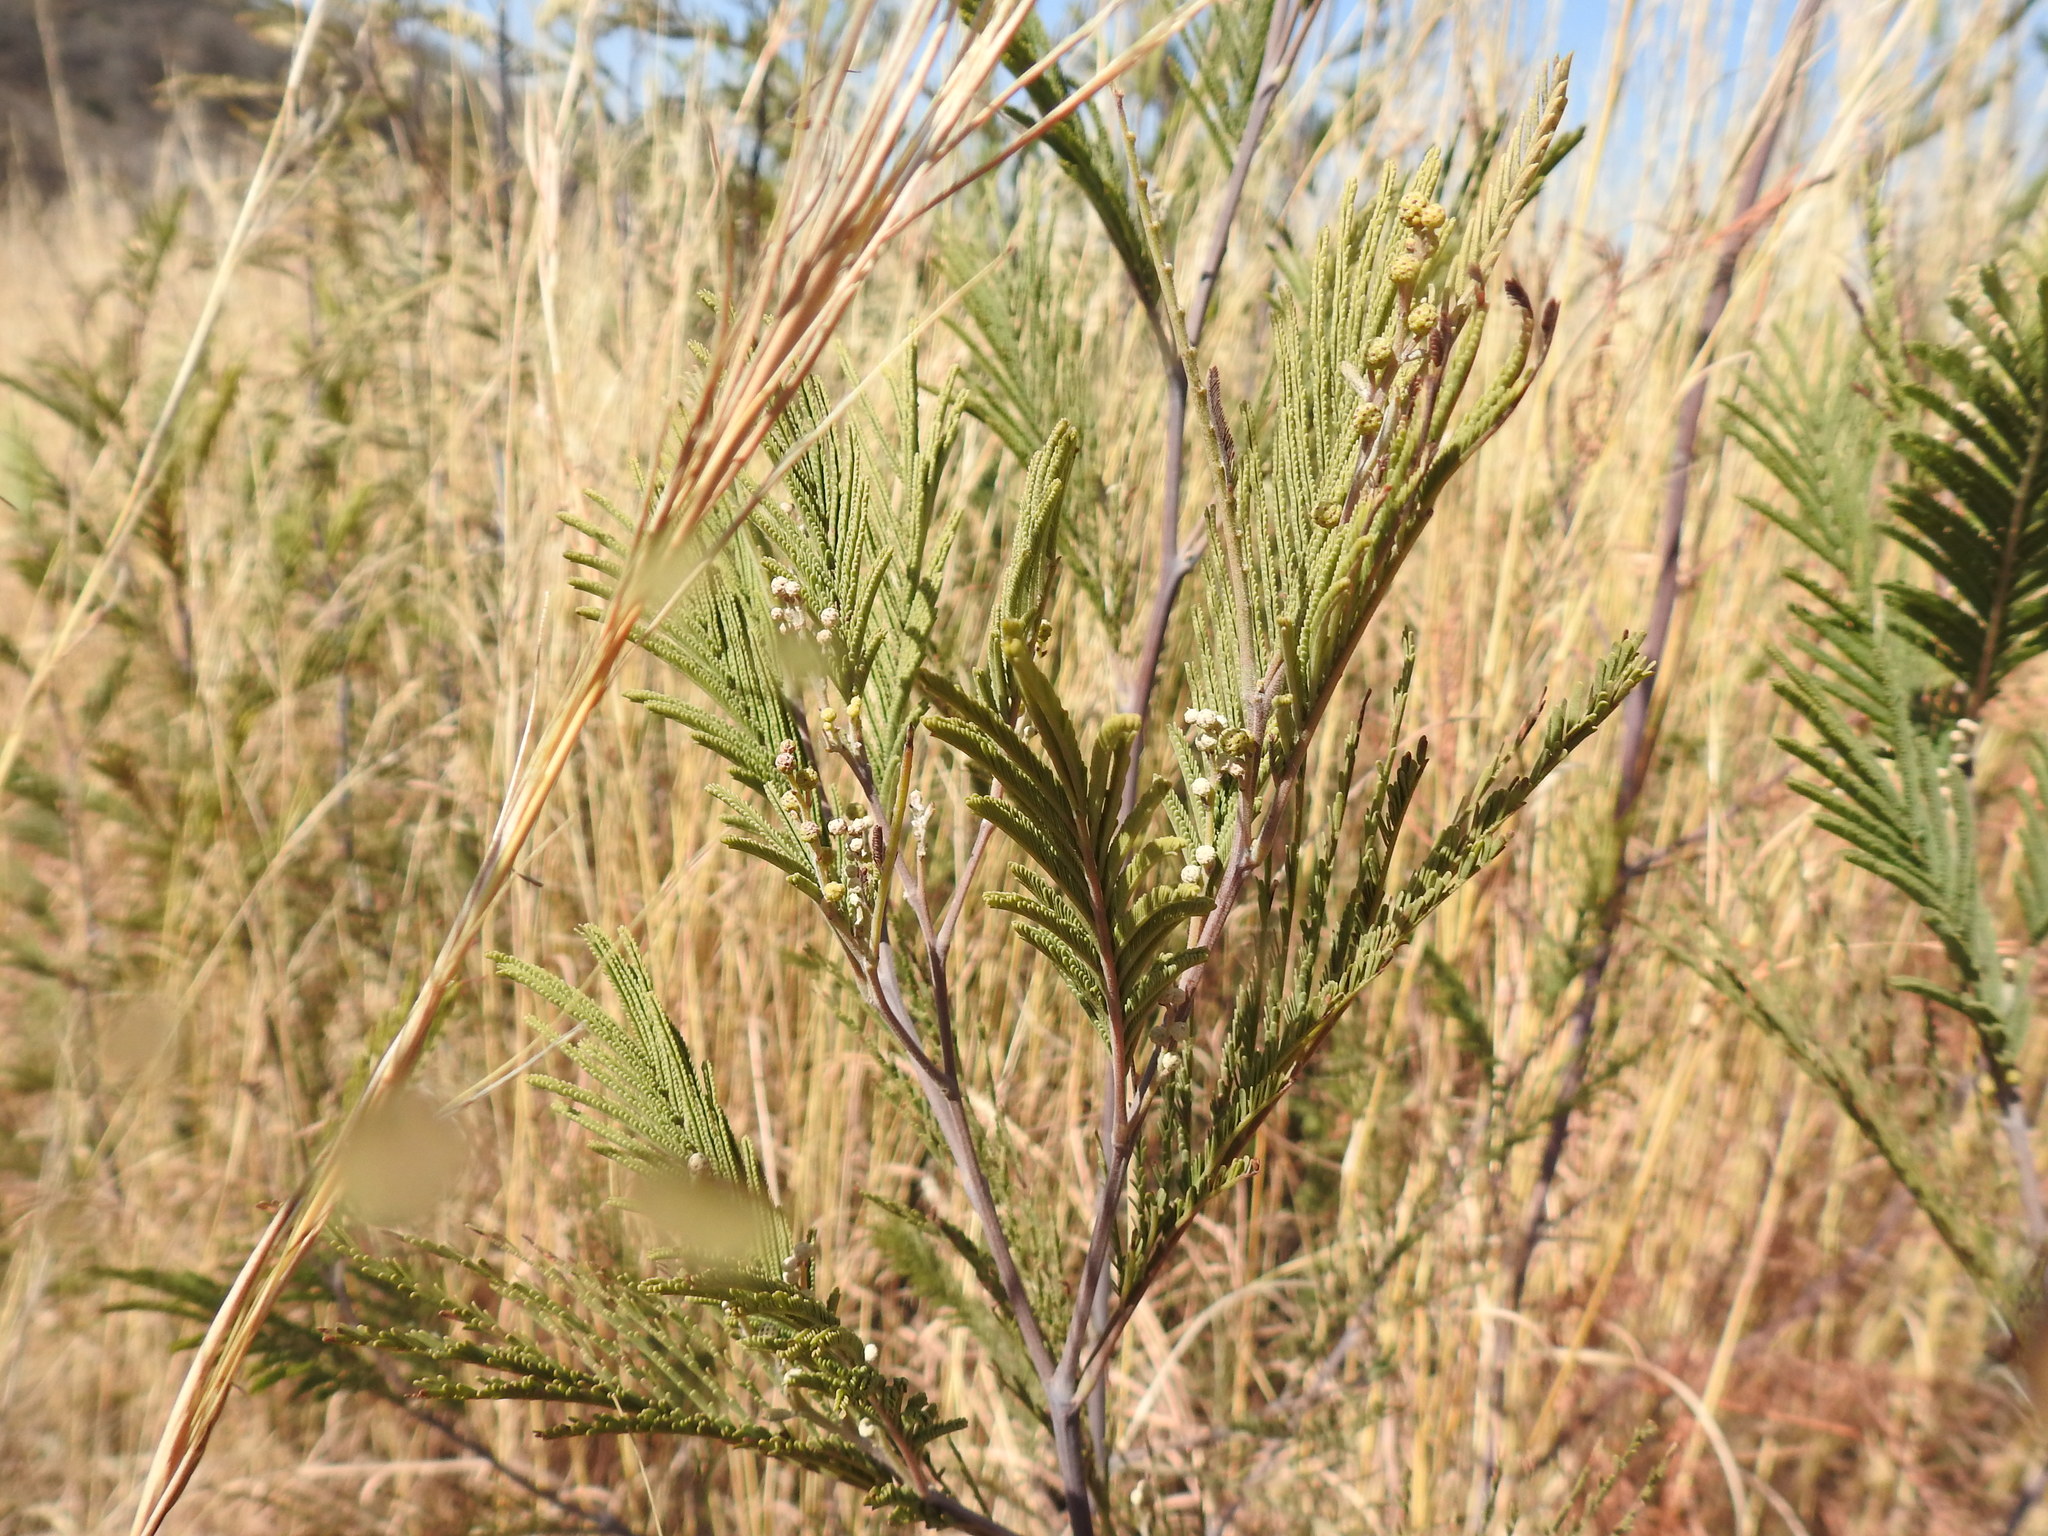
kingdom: Plantae
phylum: Tracheophyta
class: Magnoliopsida
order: Fabales
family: Fabaceae
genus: Acacia
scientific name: Acacia mearnsii
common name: Black wattle
